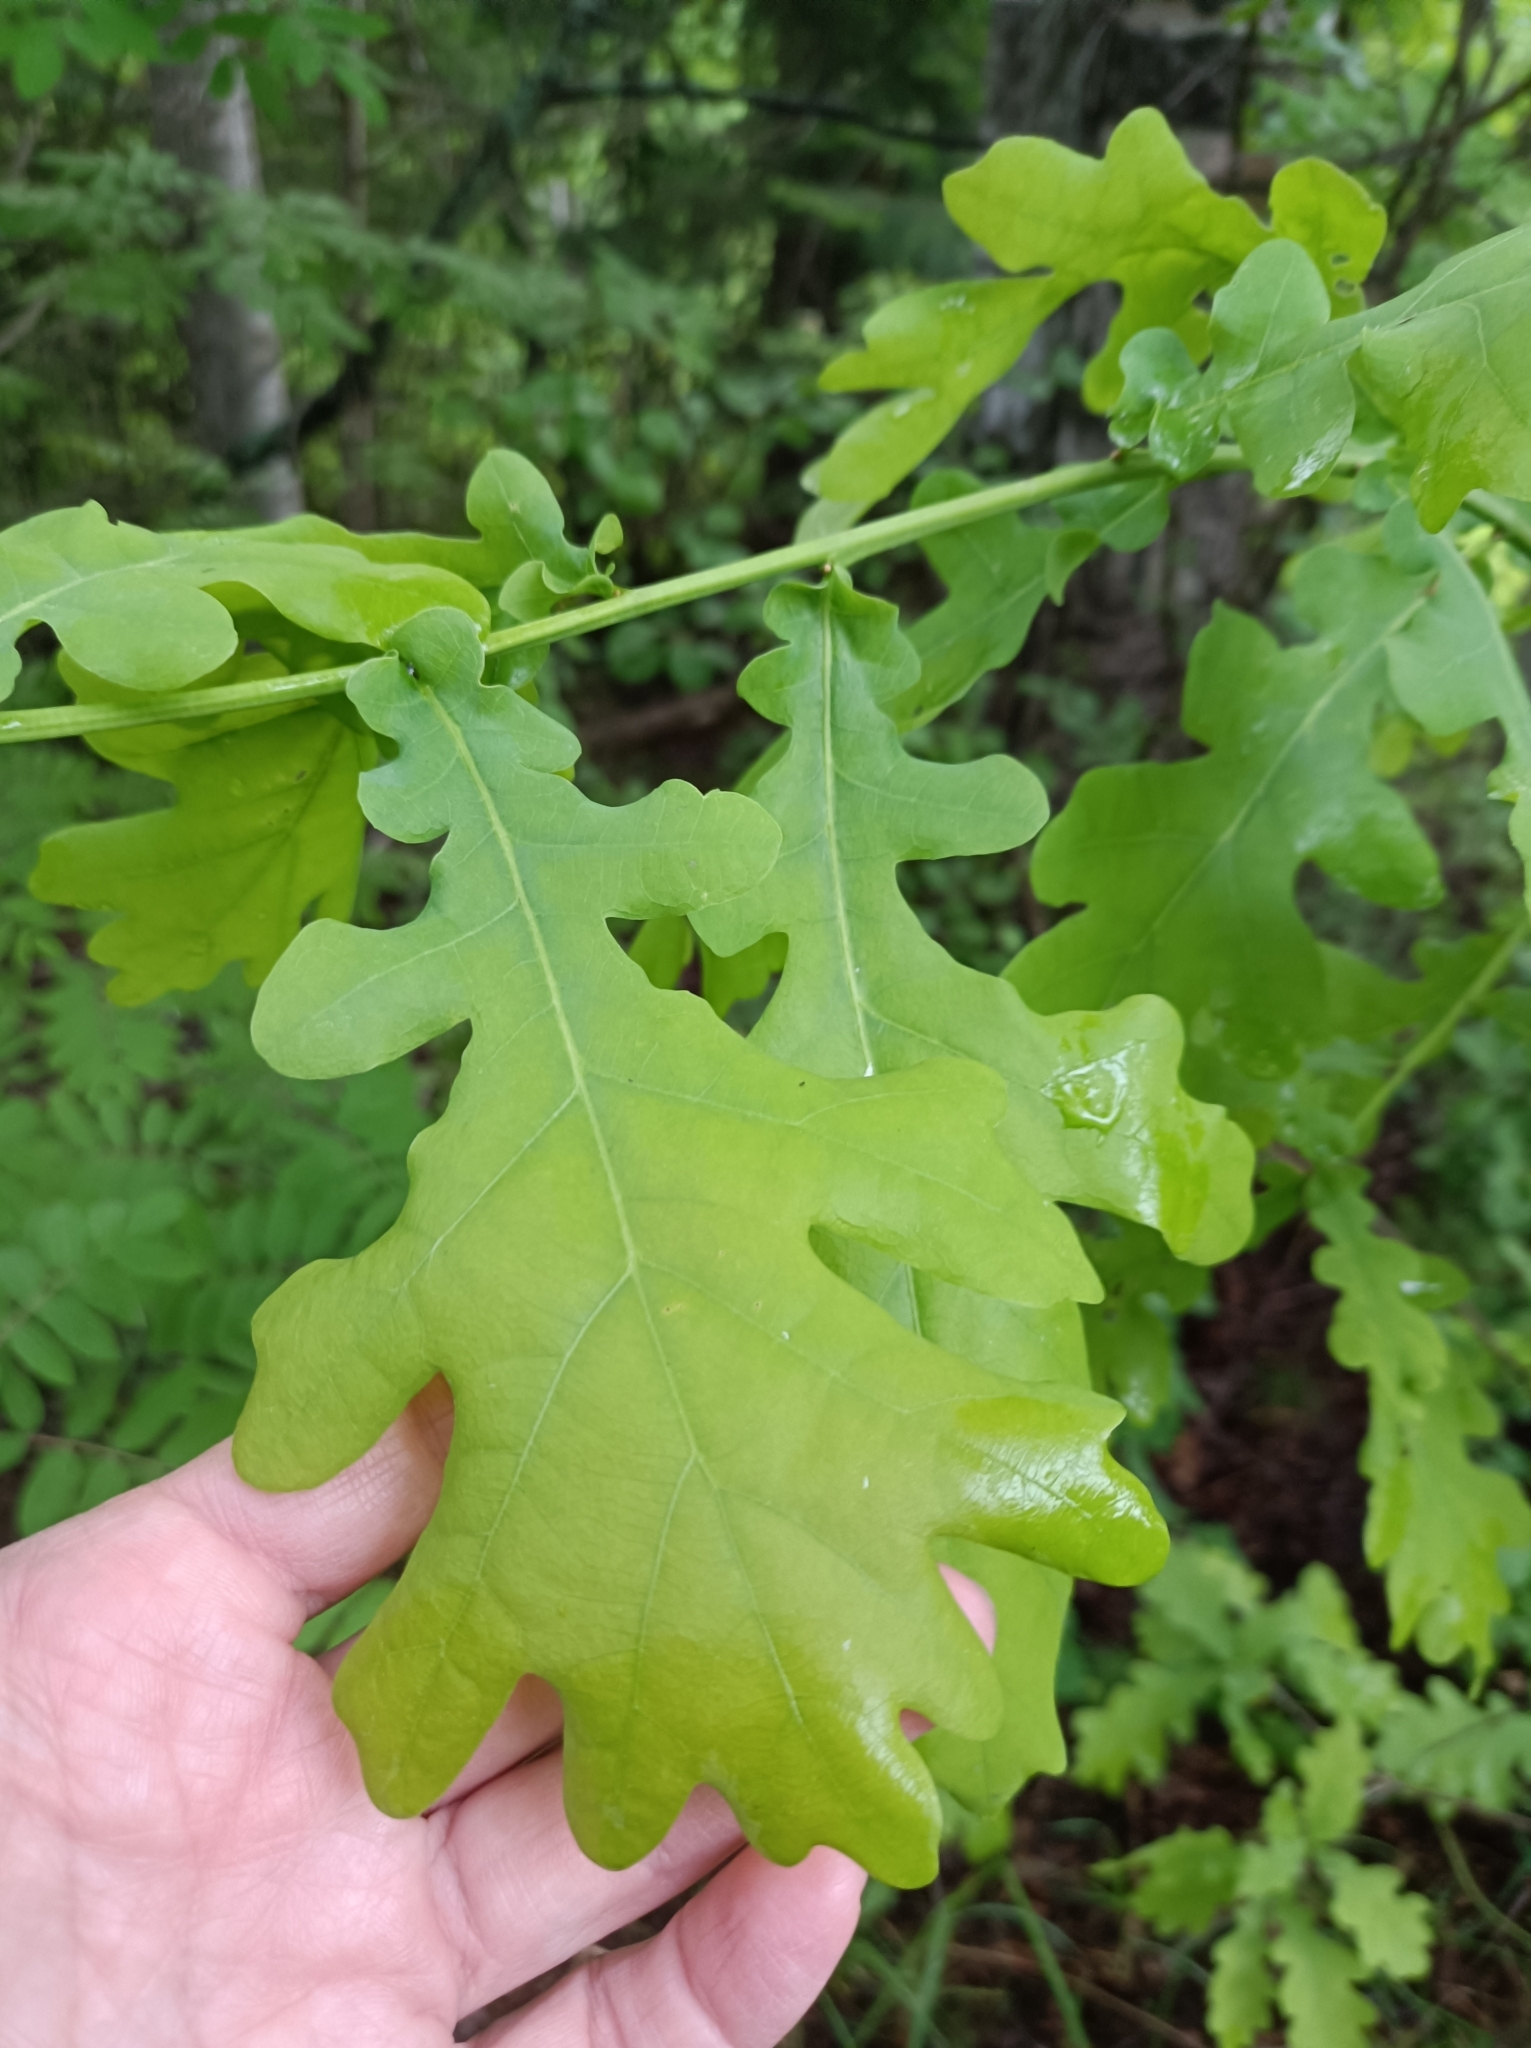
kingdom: Plantae
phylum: Tracheophyta
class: Magnoliopsida
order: Fagales
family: Fagaceae
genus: Quercus
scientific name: Quercus robur
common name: Pedunculate oak
